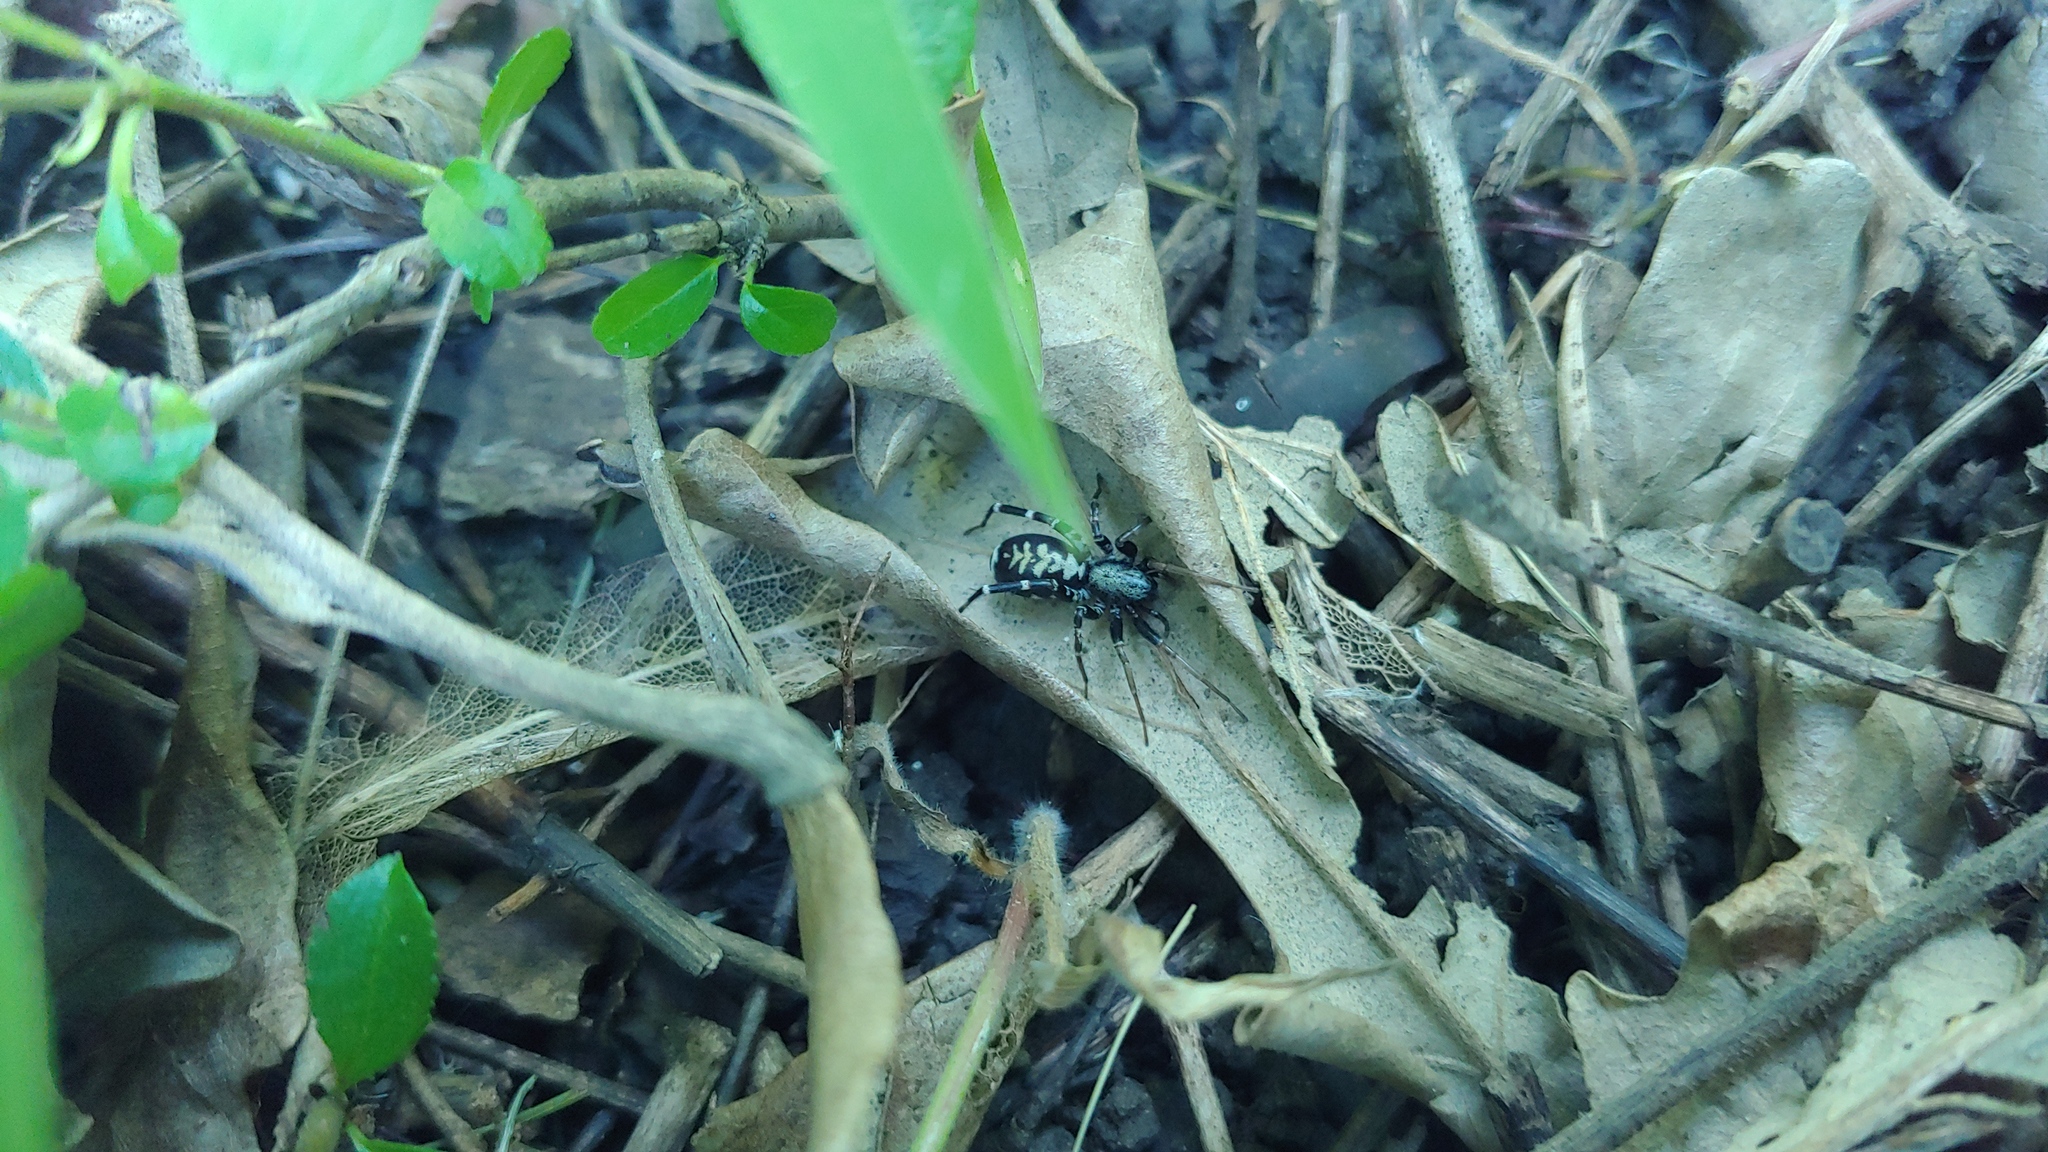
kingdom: Animalia
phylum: Arthropoda
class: Arachnida
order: Araneae
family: Corinnidae
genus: Castianeira
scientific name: Castianeira longipalpa
